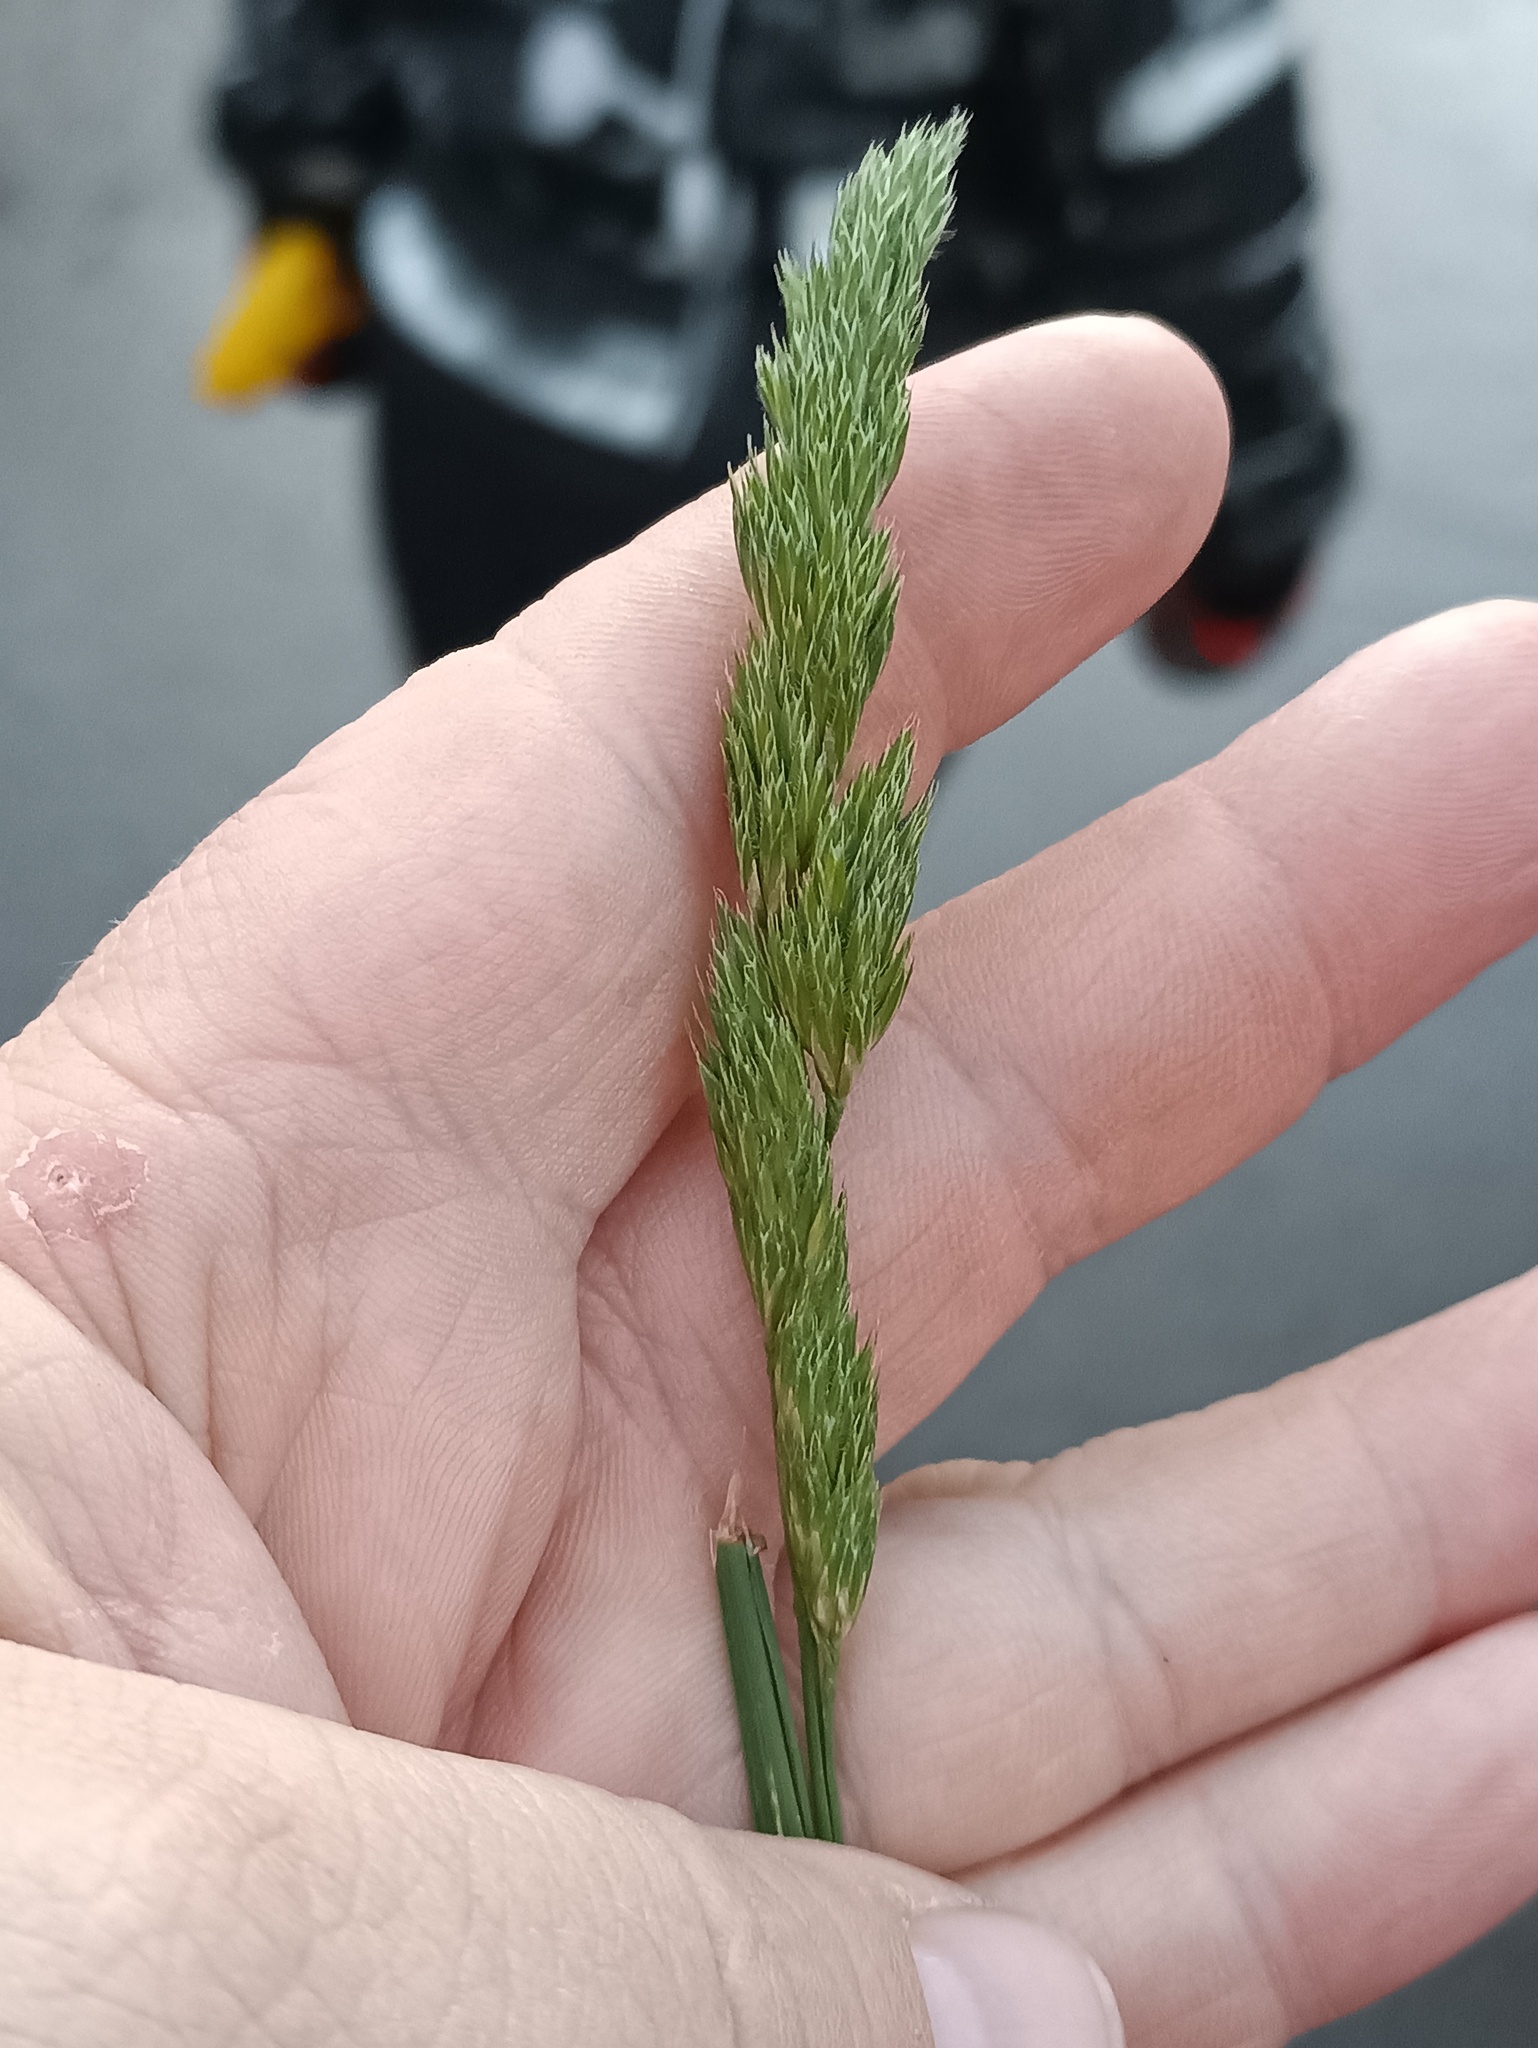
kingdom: Plantae
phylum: Tracheophyta
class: Liliopsida
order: Poales
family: Poaceae
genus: Dactylis
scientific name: Dactylis glomerata
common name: Orchardgrass
